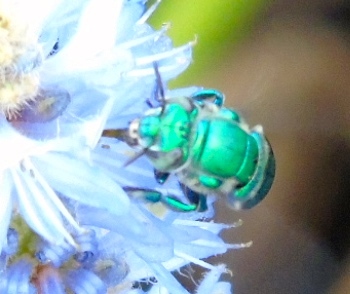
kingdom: Animalia
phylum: Arthropoda
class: Insecta
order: Hymenoptera
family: Apidae
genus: Euglossa
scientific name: Euglossa
